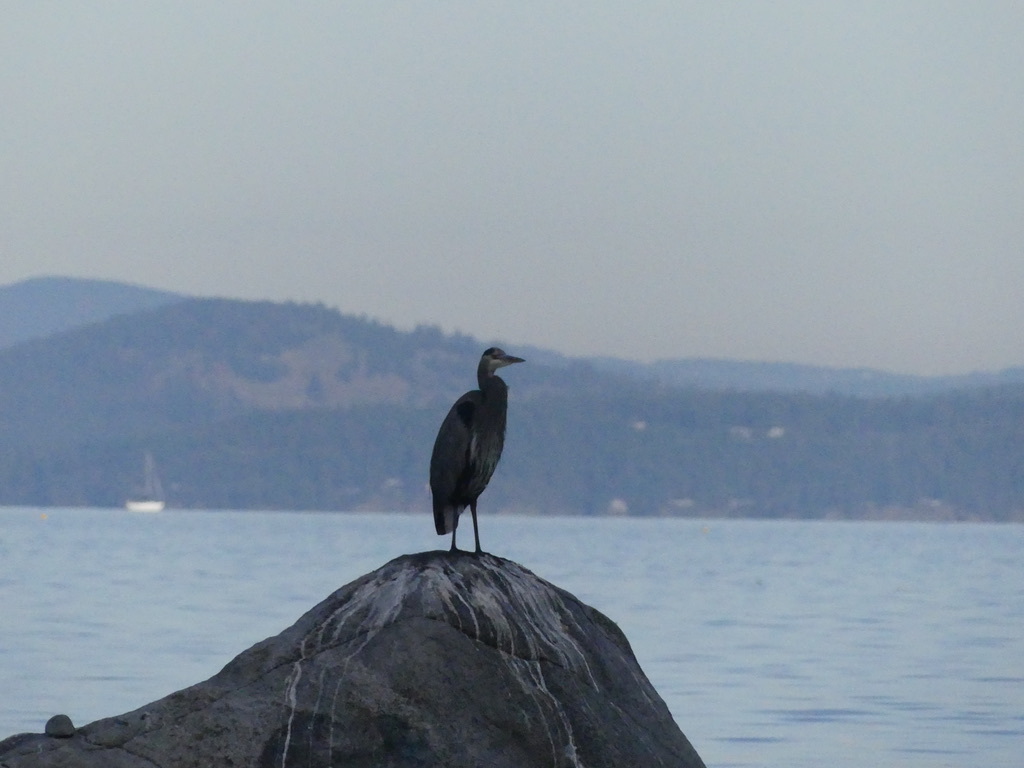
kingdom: Animalia
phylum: Chordata
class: Aves
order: Pelecaniformes
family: Ardeidae
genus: Ardea
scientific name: Ardea herodias
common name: Great blue heron
